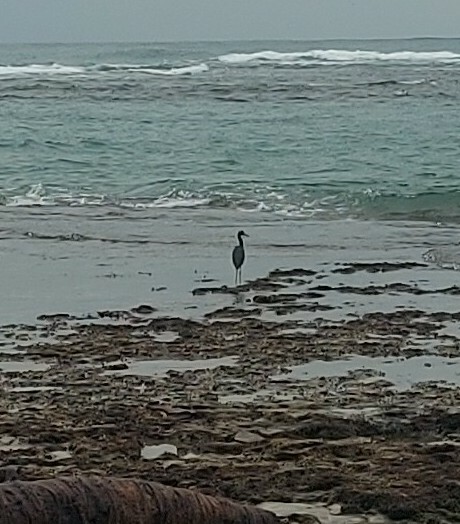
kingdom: Animalia
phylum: Chordata
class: Aves
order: Pelecaniformes
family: Ardeidae
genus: Egretta
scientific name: Egretta caerulea
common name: Little blue heron
